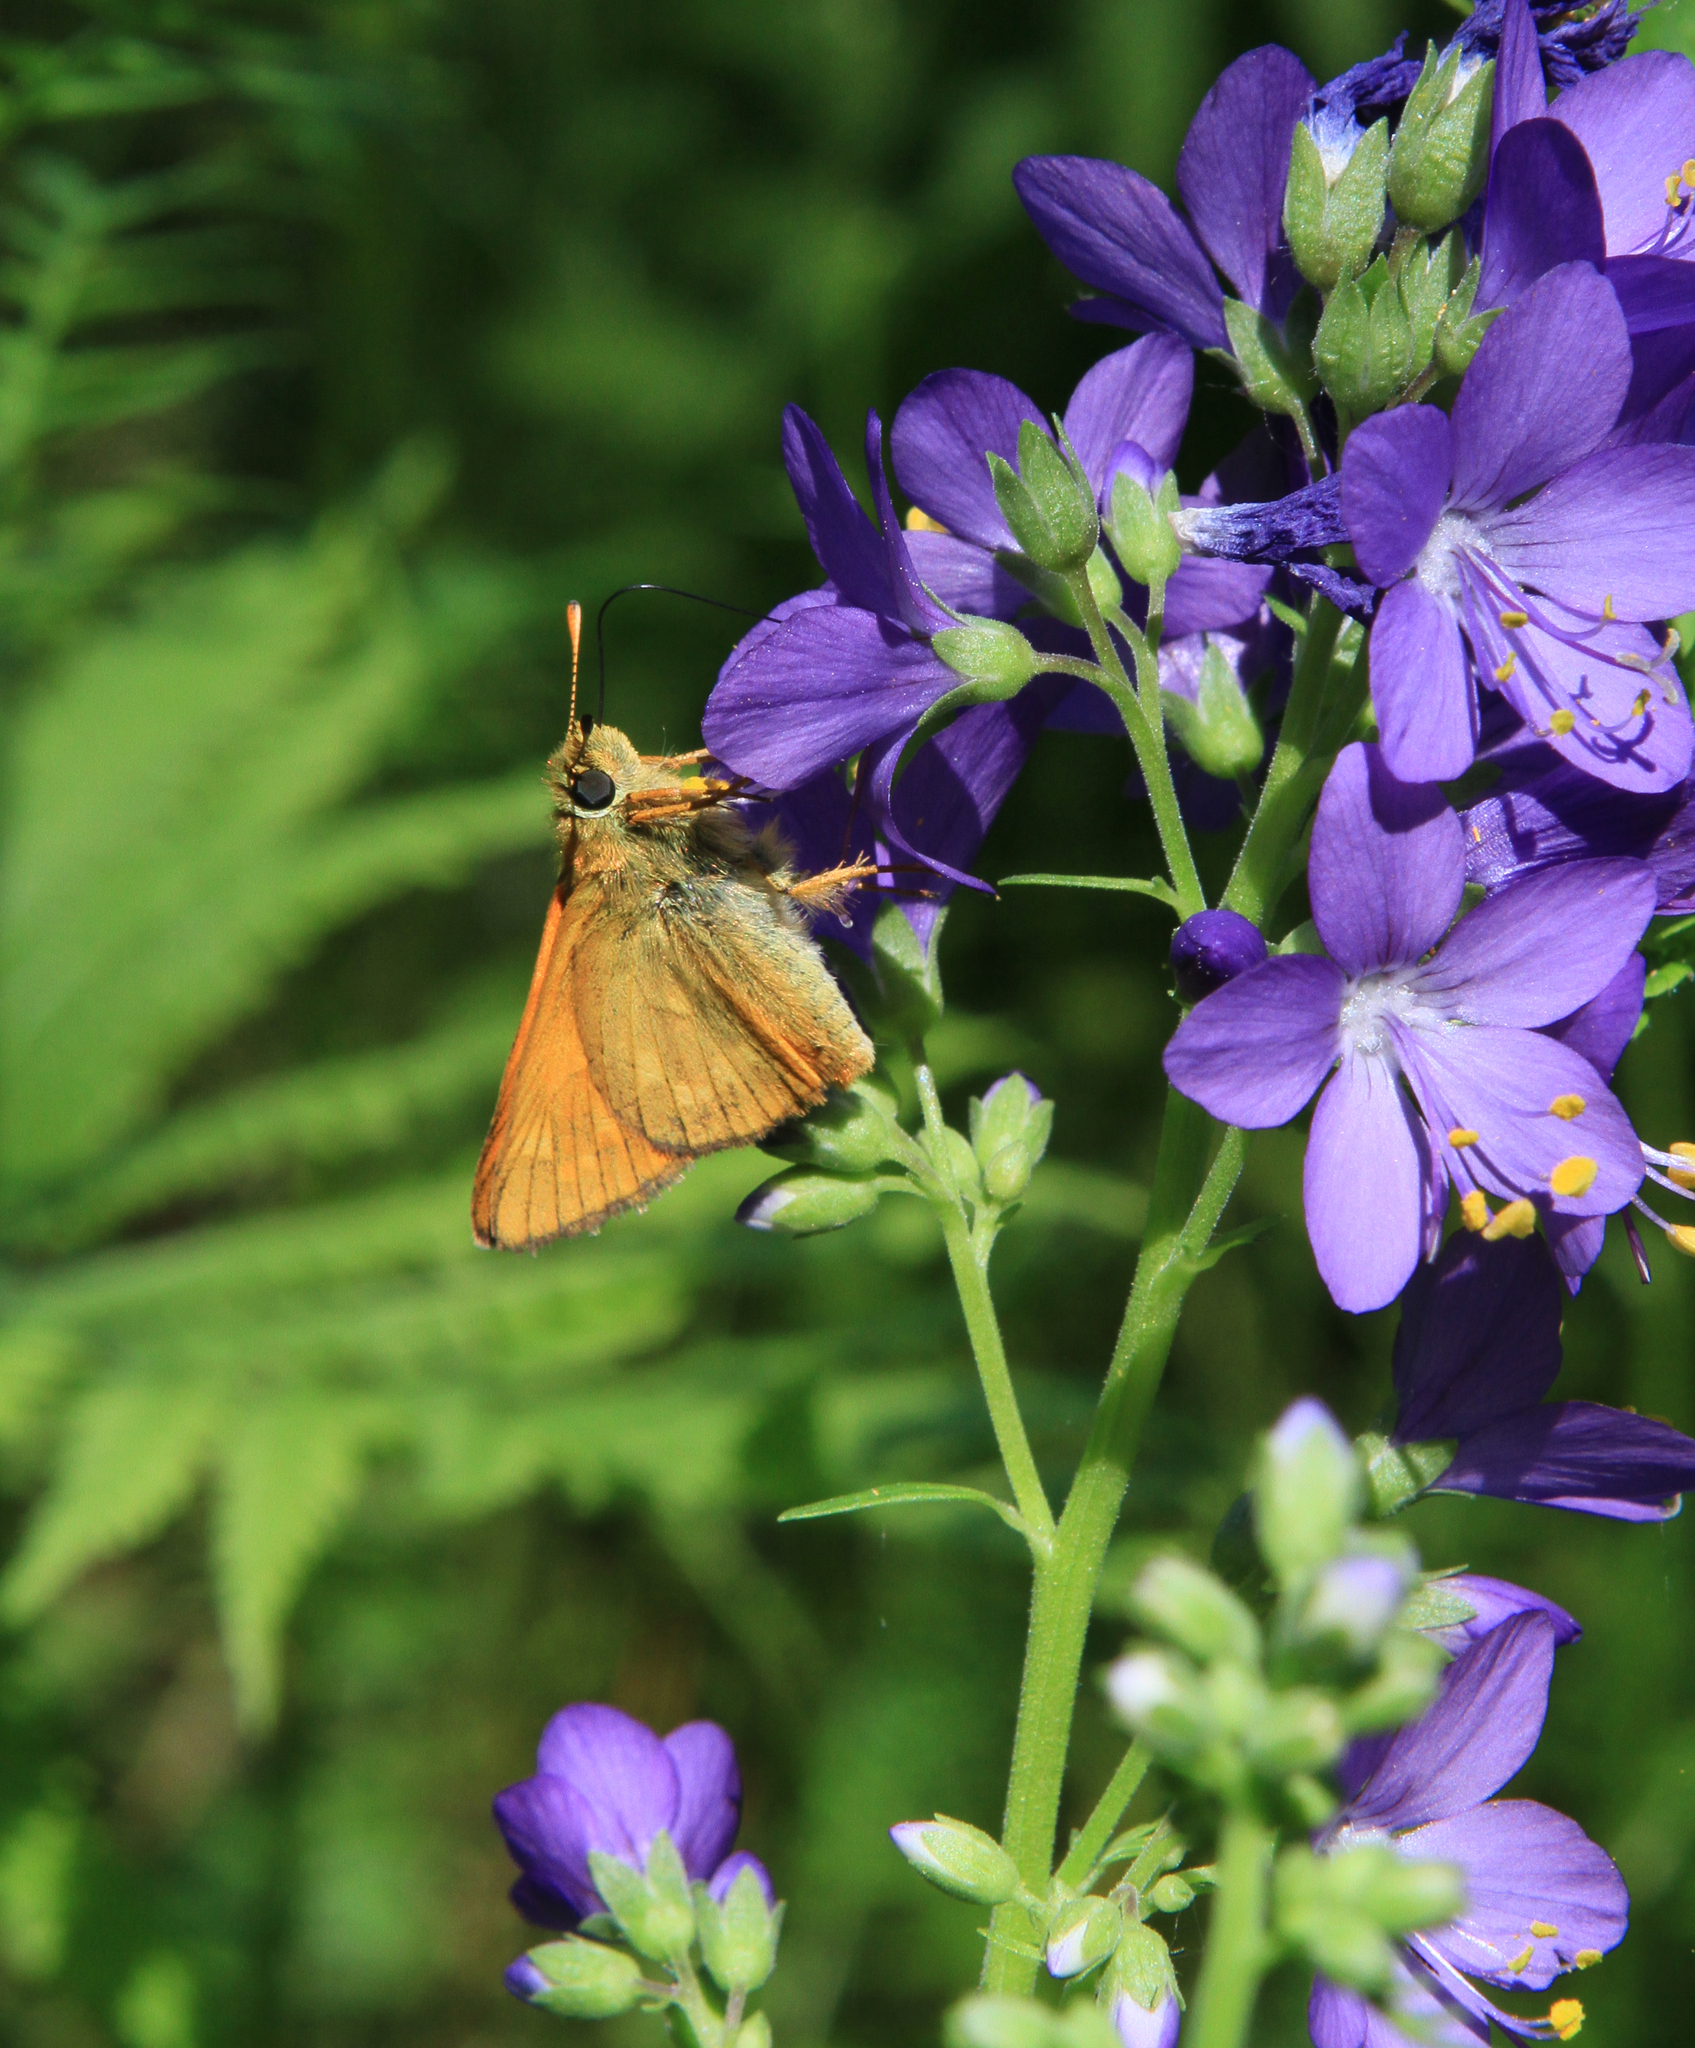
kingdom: Animalia
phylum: Arthropoda
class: Insecta
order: Lepidoptera
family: Hesperiidae
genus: Ochlodes
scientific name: Ochlodes venata
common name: Large skipper
